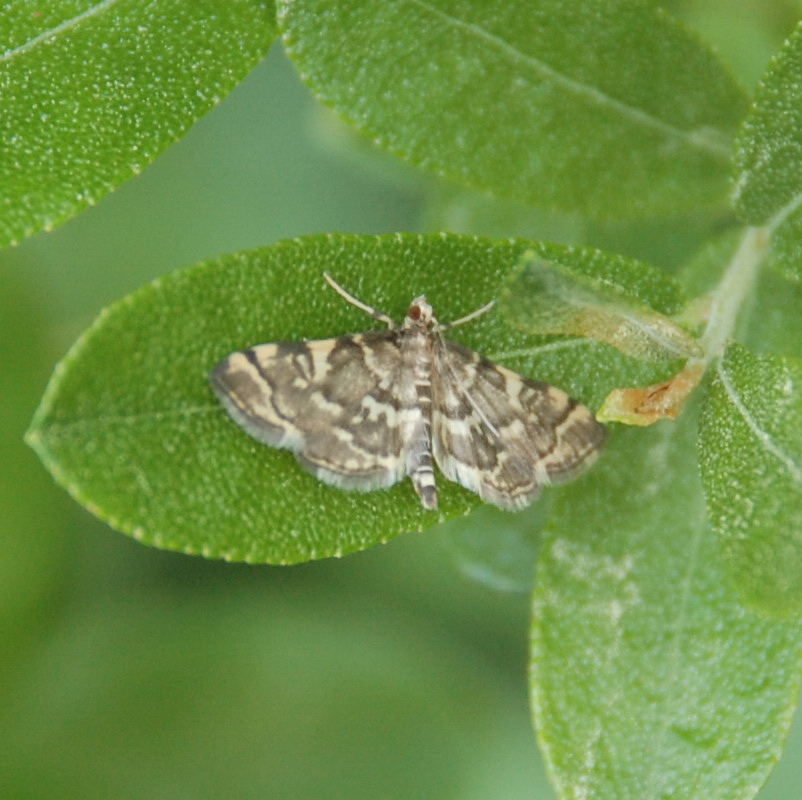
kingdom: Animalia
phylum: Arthropoda
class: Insecta
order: Lepidoptera
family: Crambidae
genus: Anageshna
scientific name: Anageshna primordialis
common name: Yellow-spotted webworm moth
